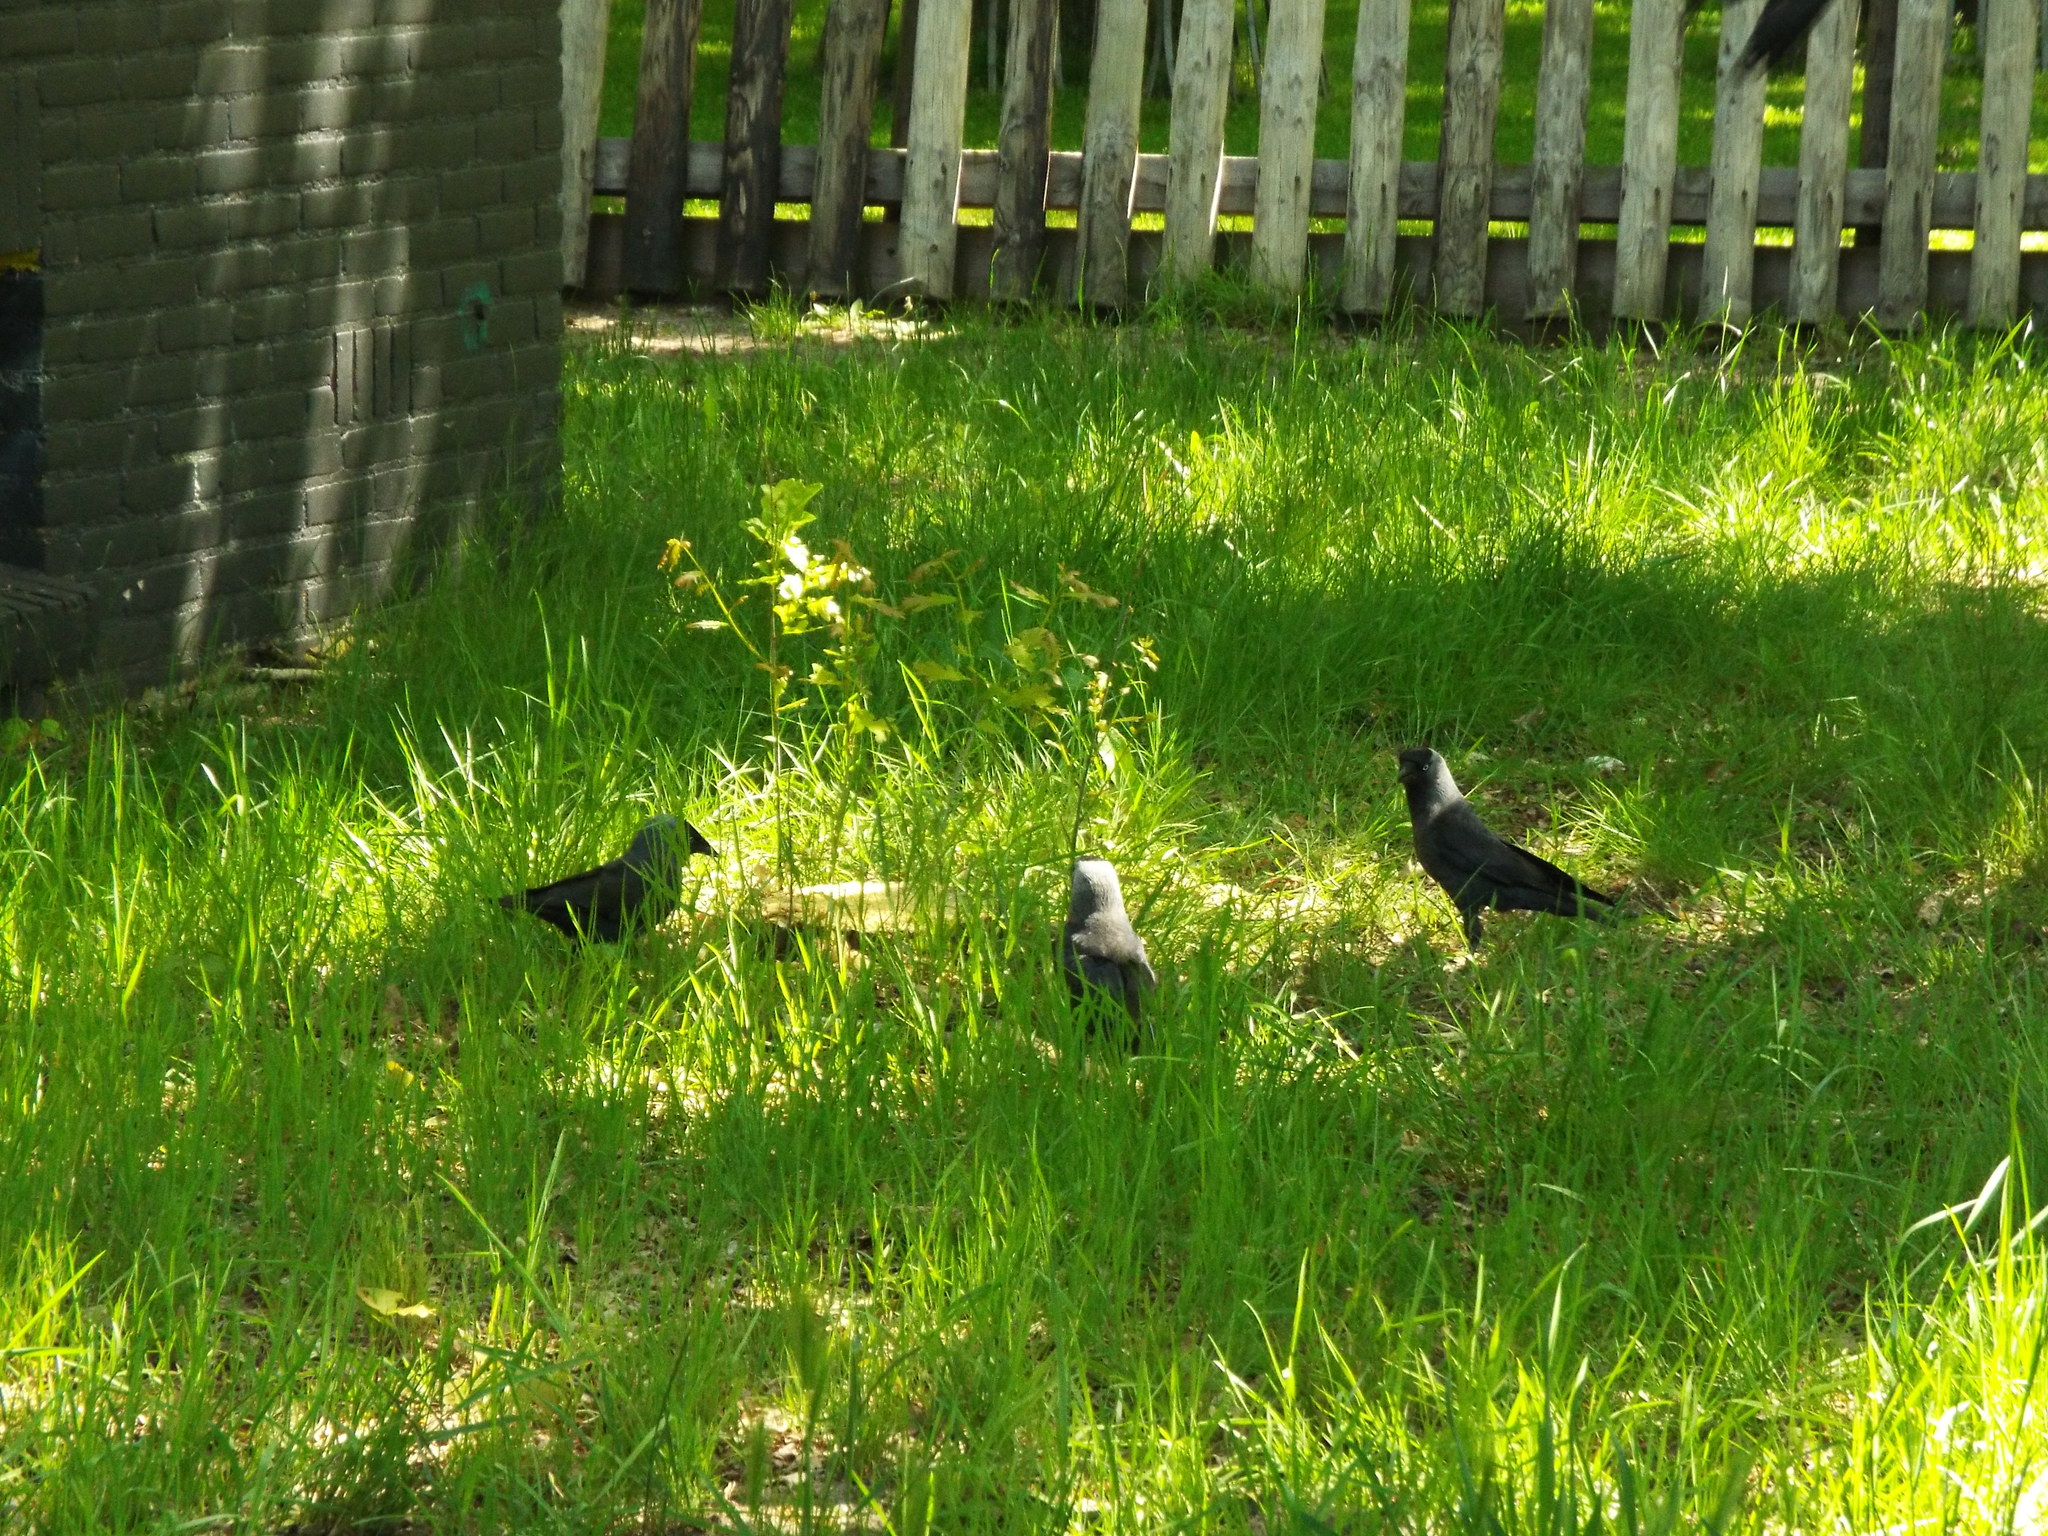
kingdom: Animalia
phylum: Chordata
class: Aves
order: Passeriformes
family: Corvidae
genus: Coloeus
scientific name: Coloeus monedula
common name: Western jackdaw
